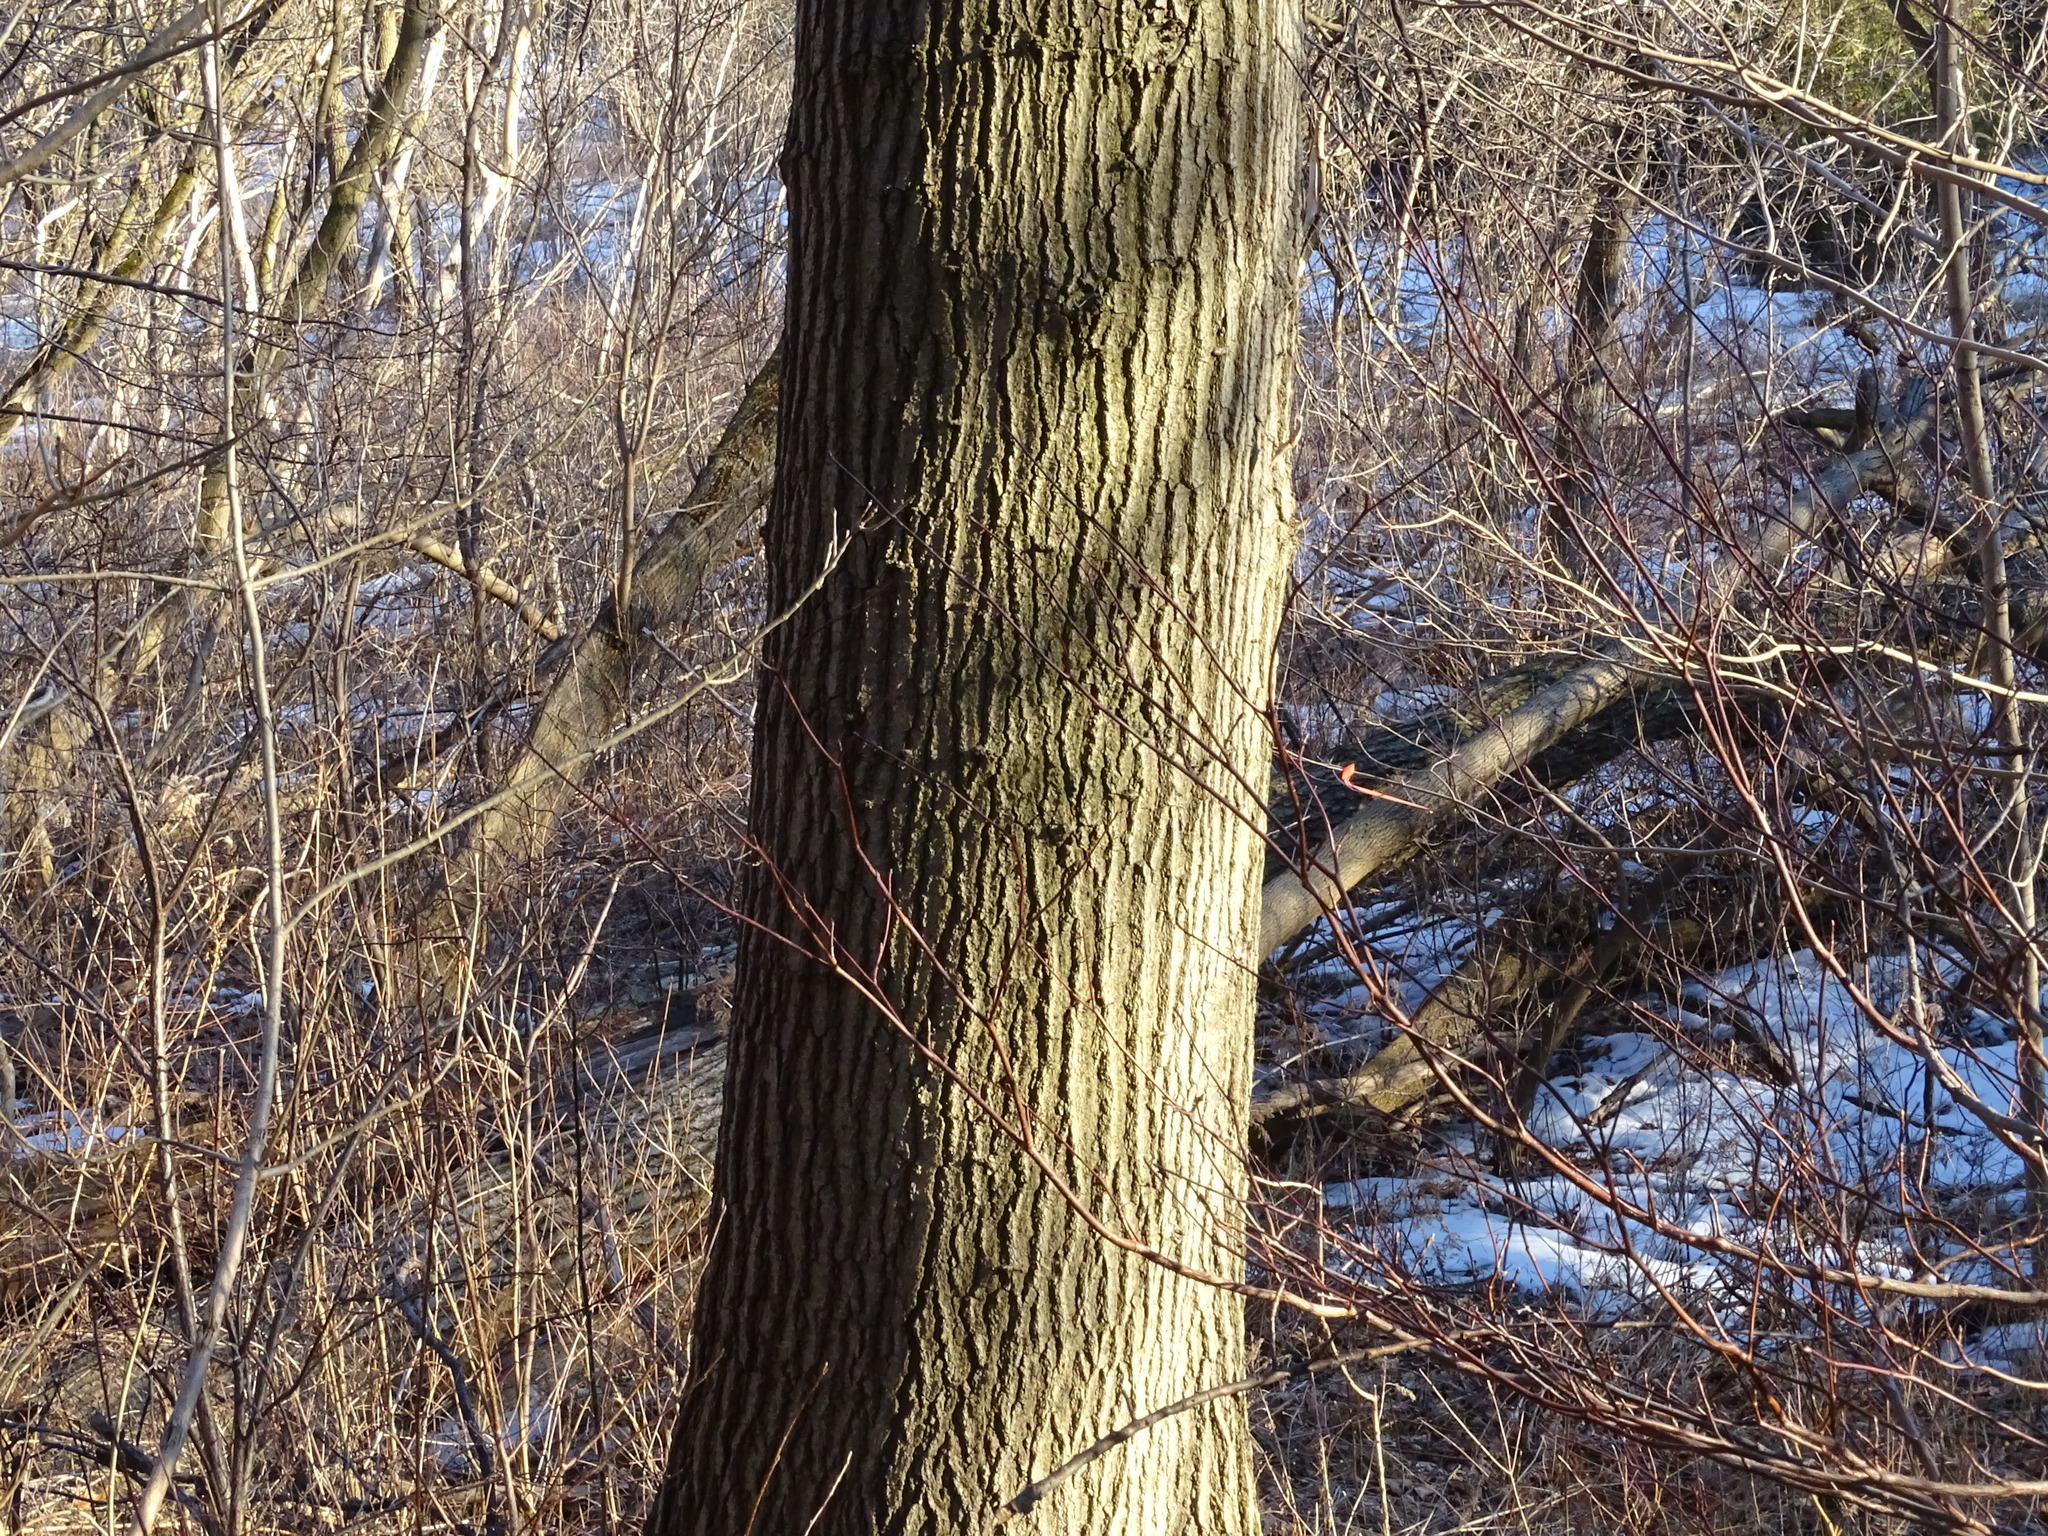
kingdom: Plantae
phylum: Tracheophyta
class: Magnoliopsida
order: Fagales
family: Fagaceae
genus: Quercus
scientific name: Quercus rubra
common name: Red oak
